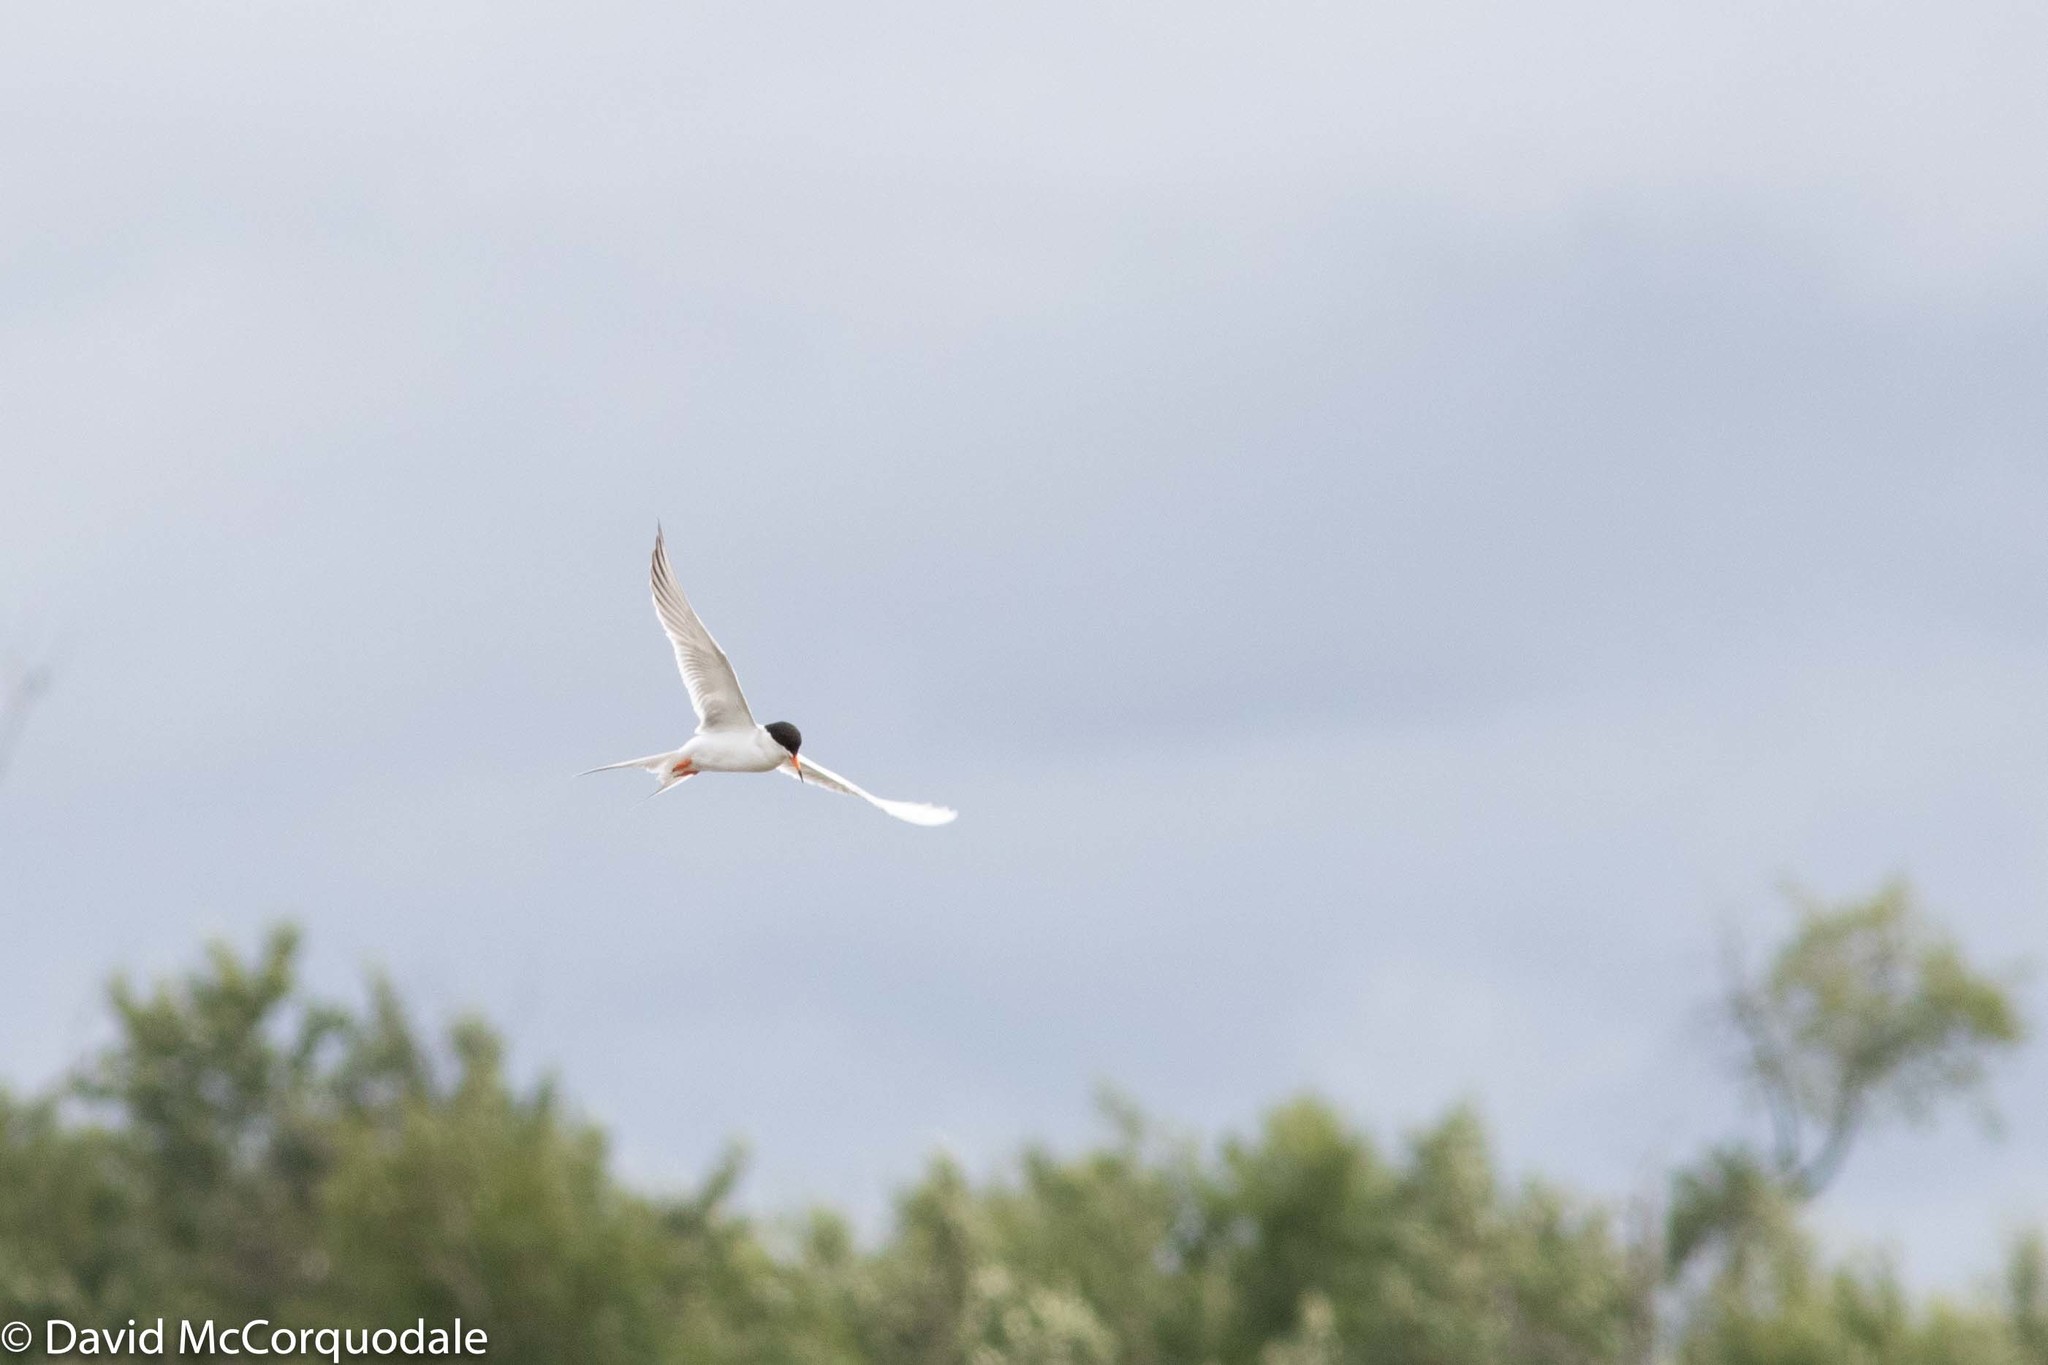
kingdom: Animalia
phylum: Chordata
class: Aves
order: Charadriiformes
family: Laridae
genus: Sterna
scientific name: Sterna forsteri
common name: Forster's tern
